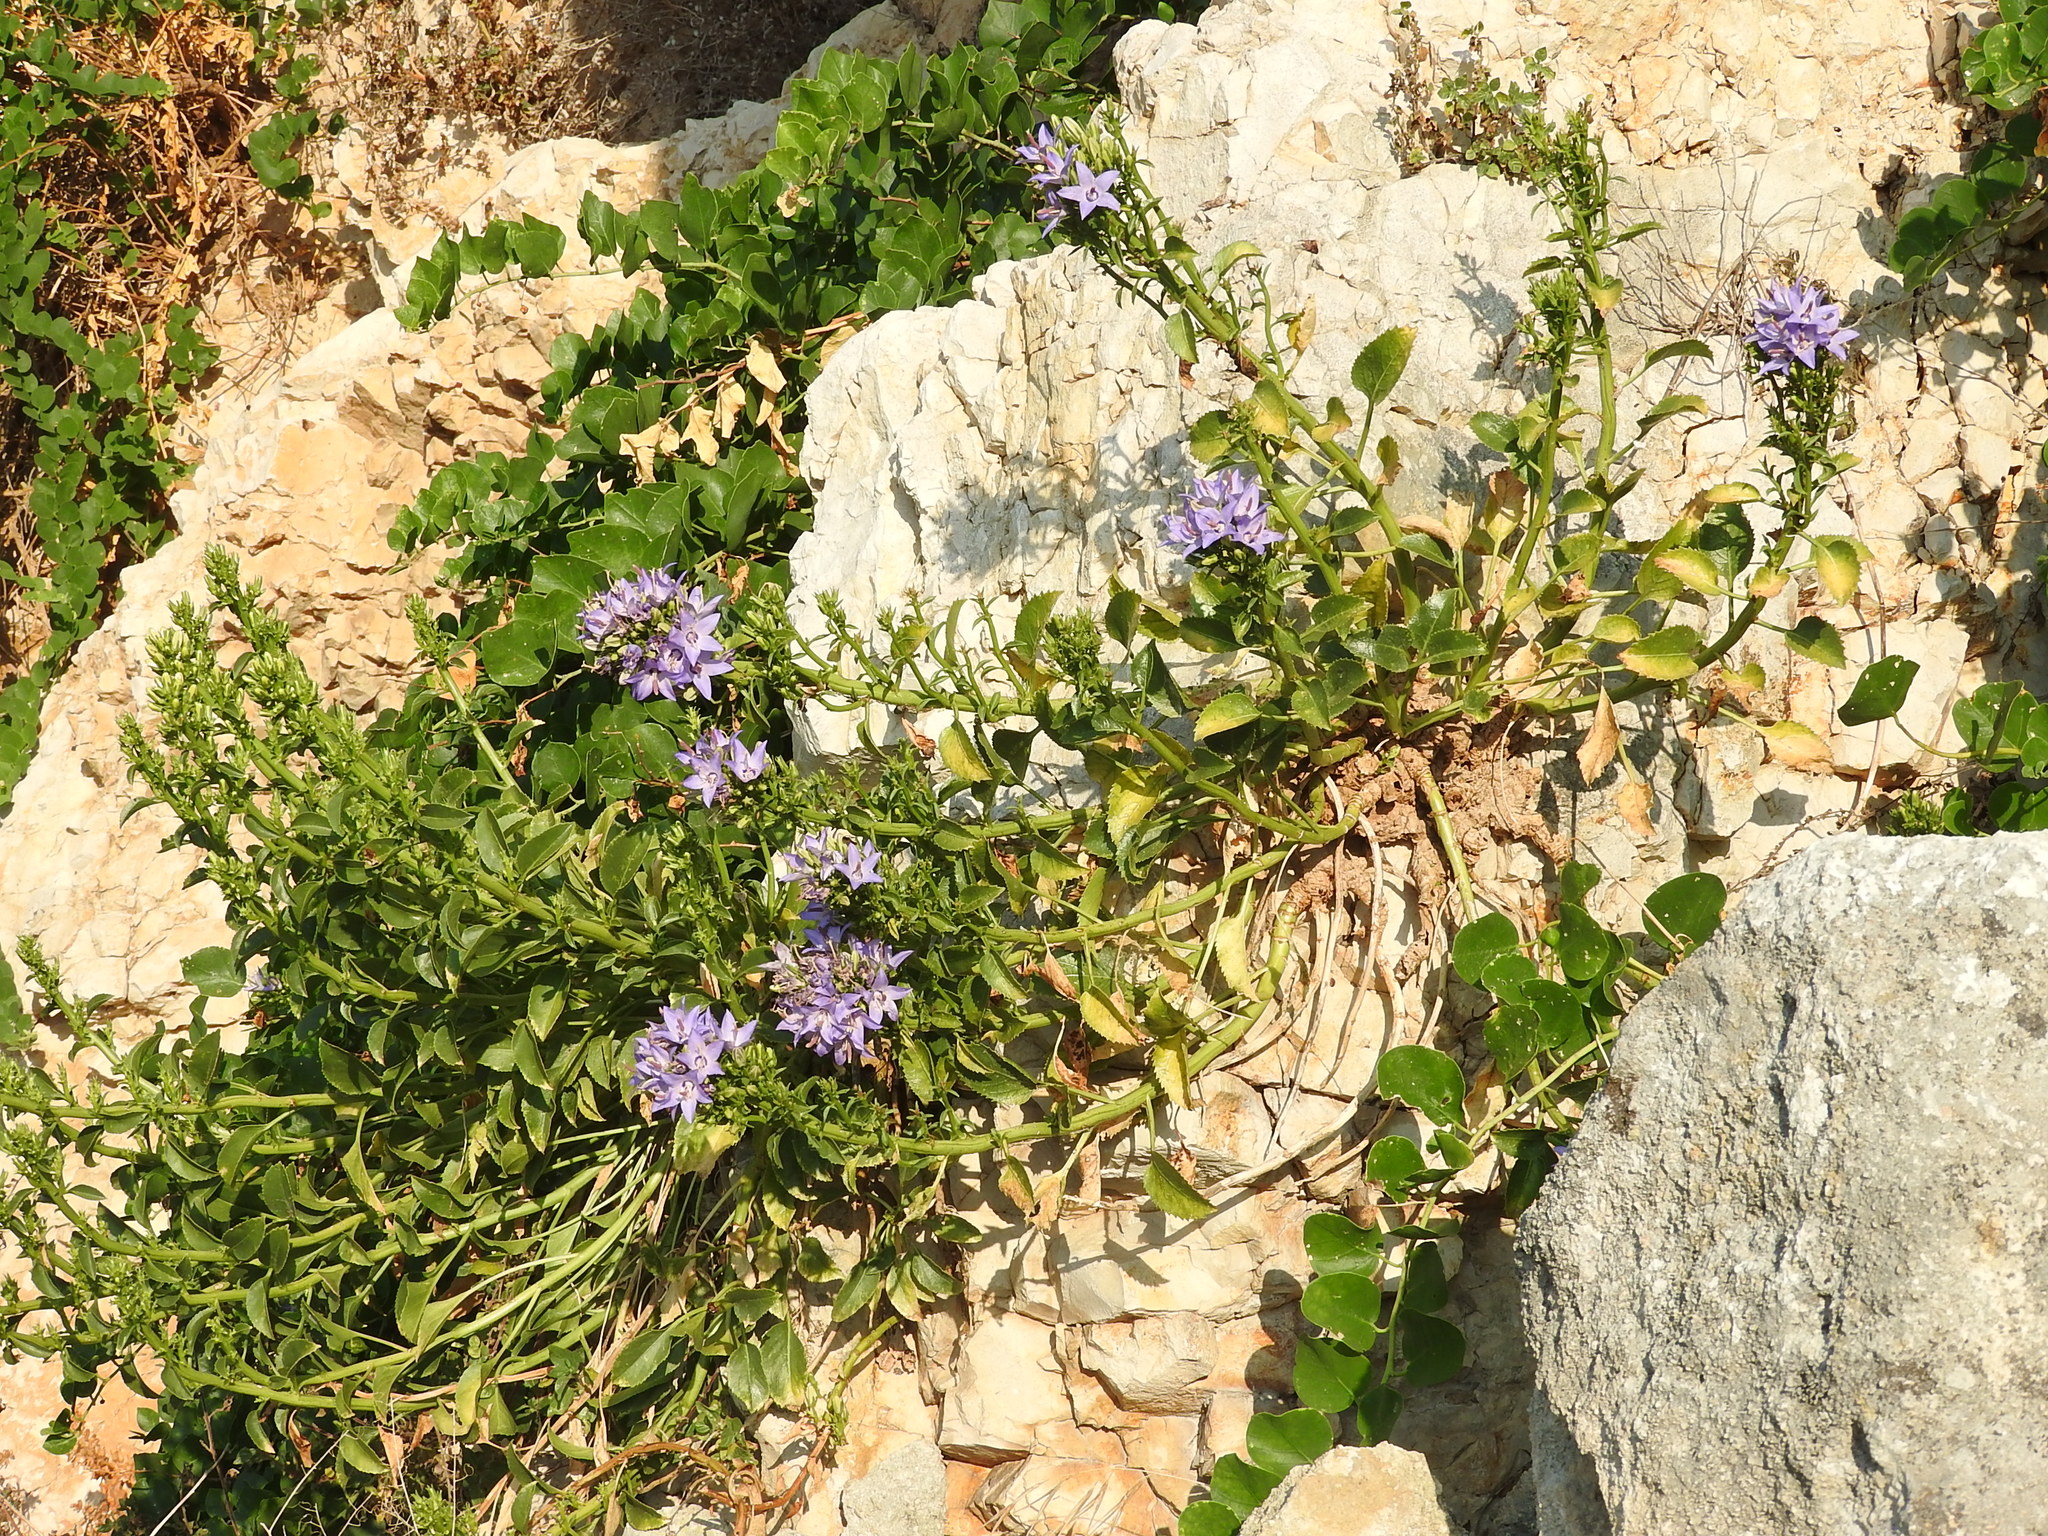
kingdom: Plantae
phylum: Tracheophyta
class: Magnoliopsida
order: Asterales
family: Campanulaceae
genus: Campanula
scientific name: Campanula versicolor
